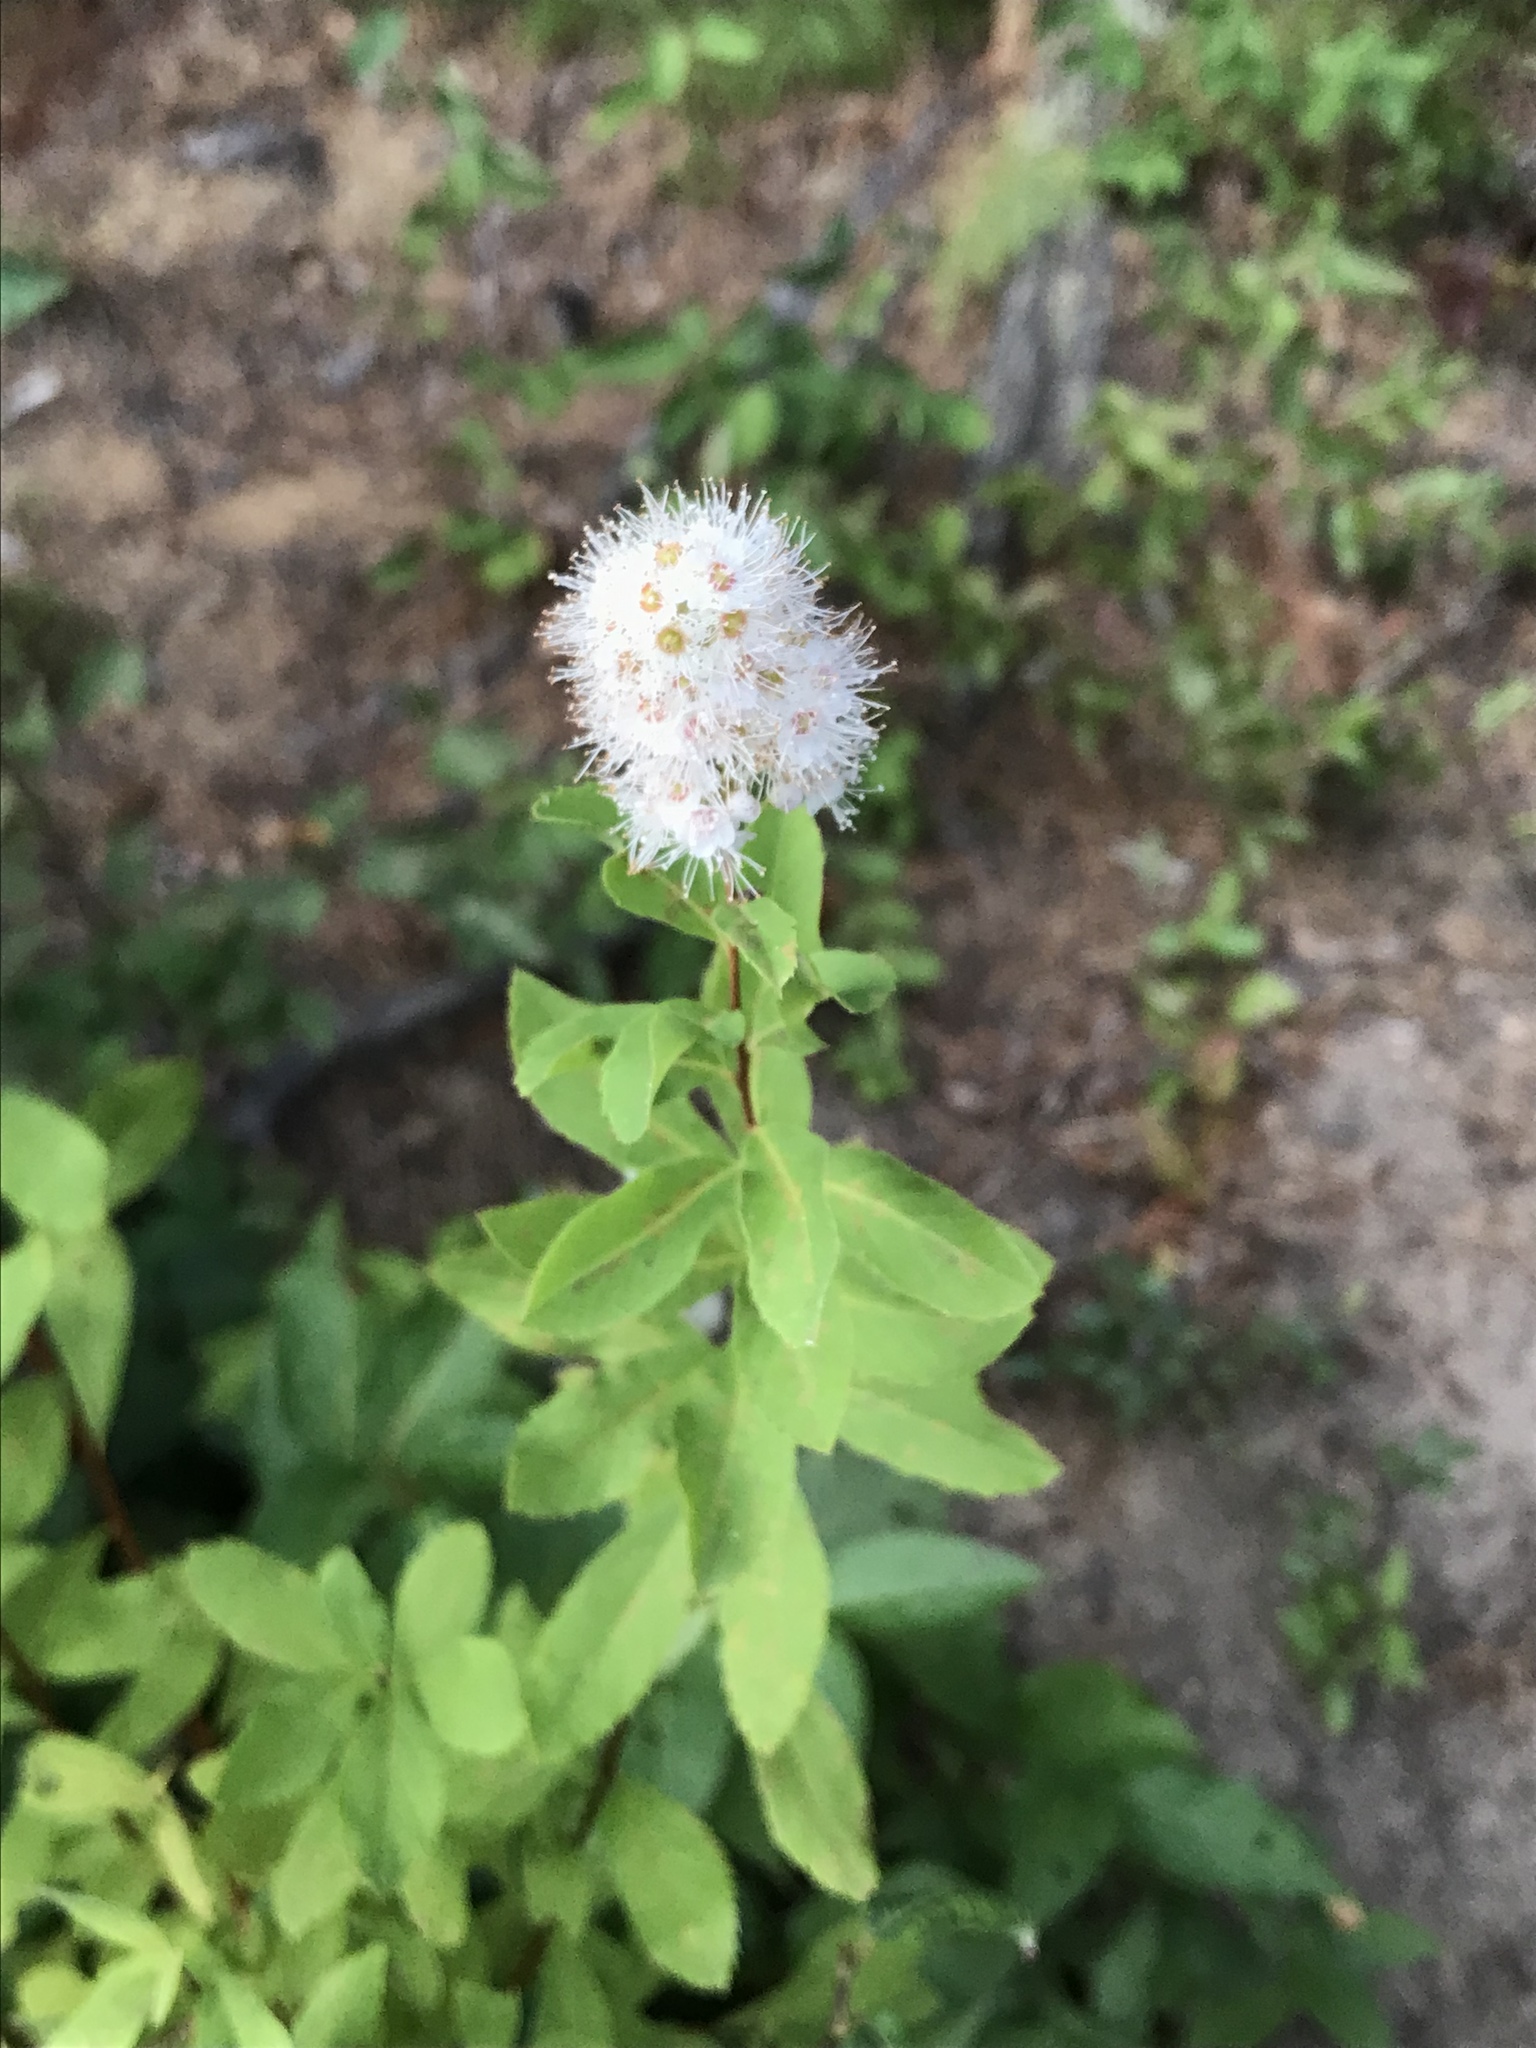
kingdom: Plantae
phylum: Tracheophyta
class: Magnoliopsida
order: Rosales
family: Rosaceae
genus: Spiraea
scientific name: Spiraea alba
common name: Pale bridewort
